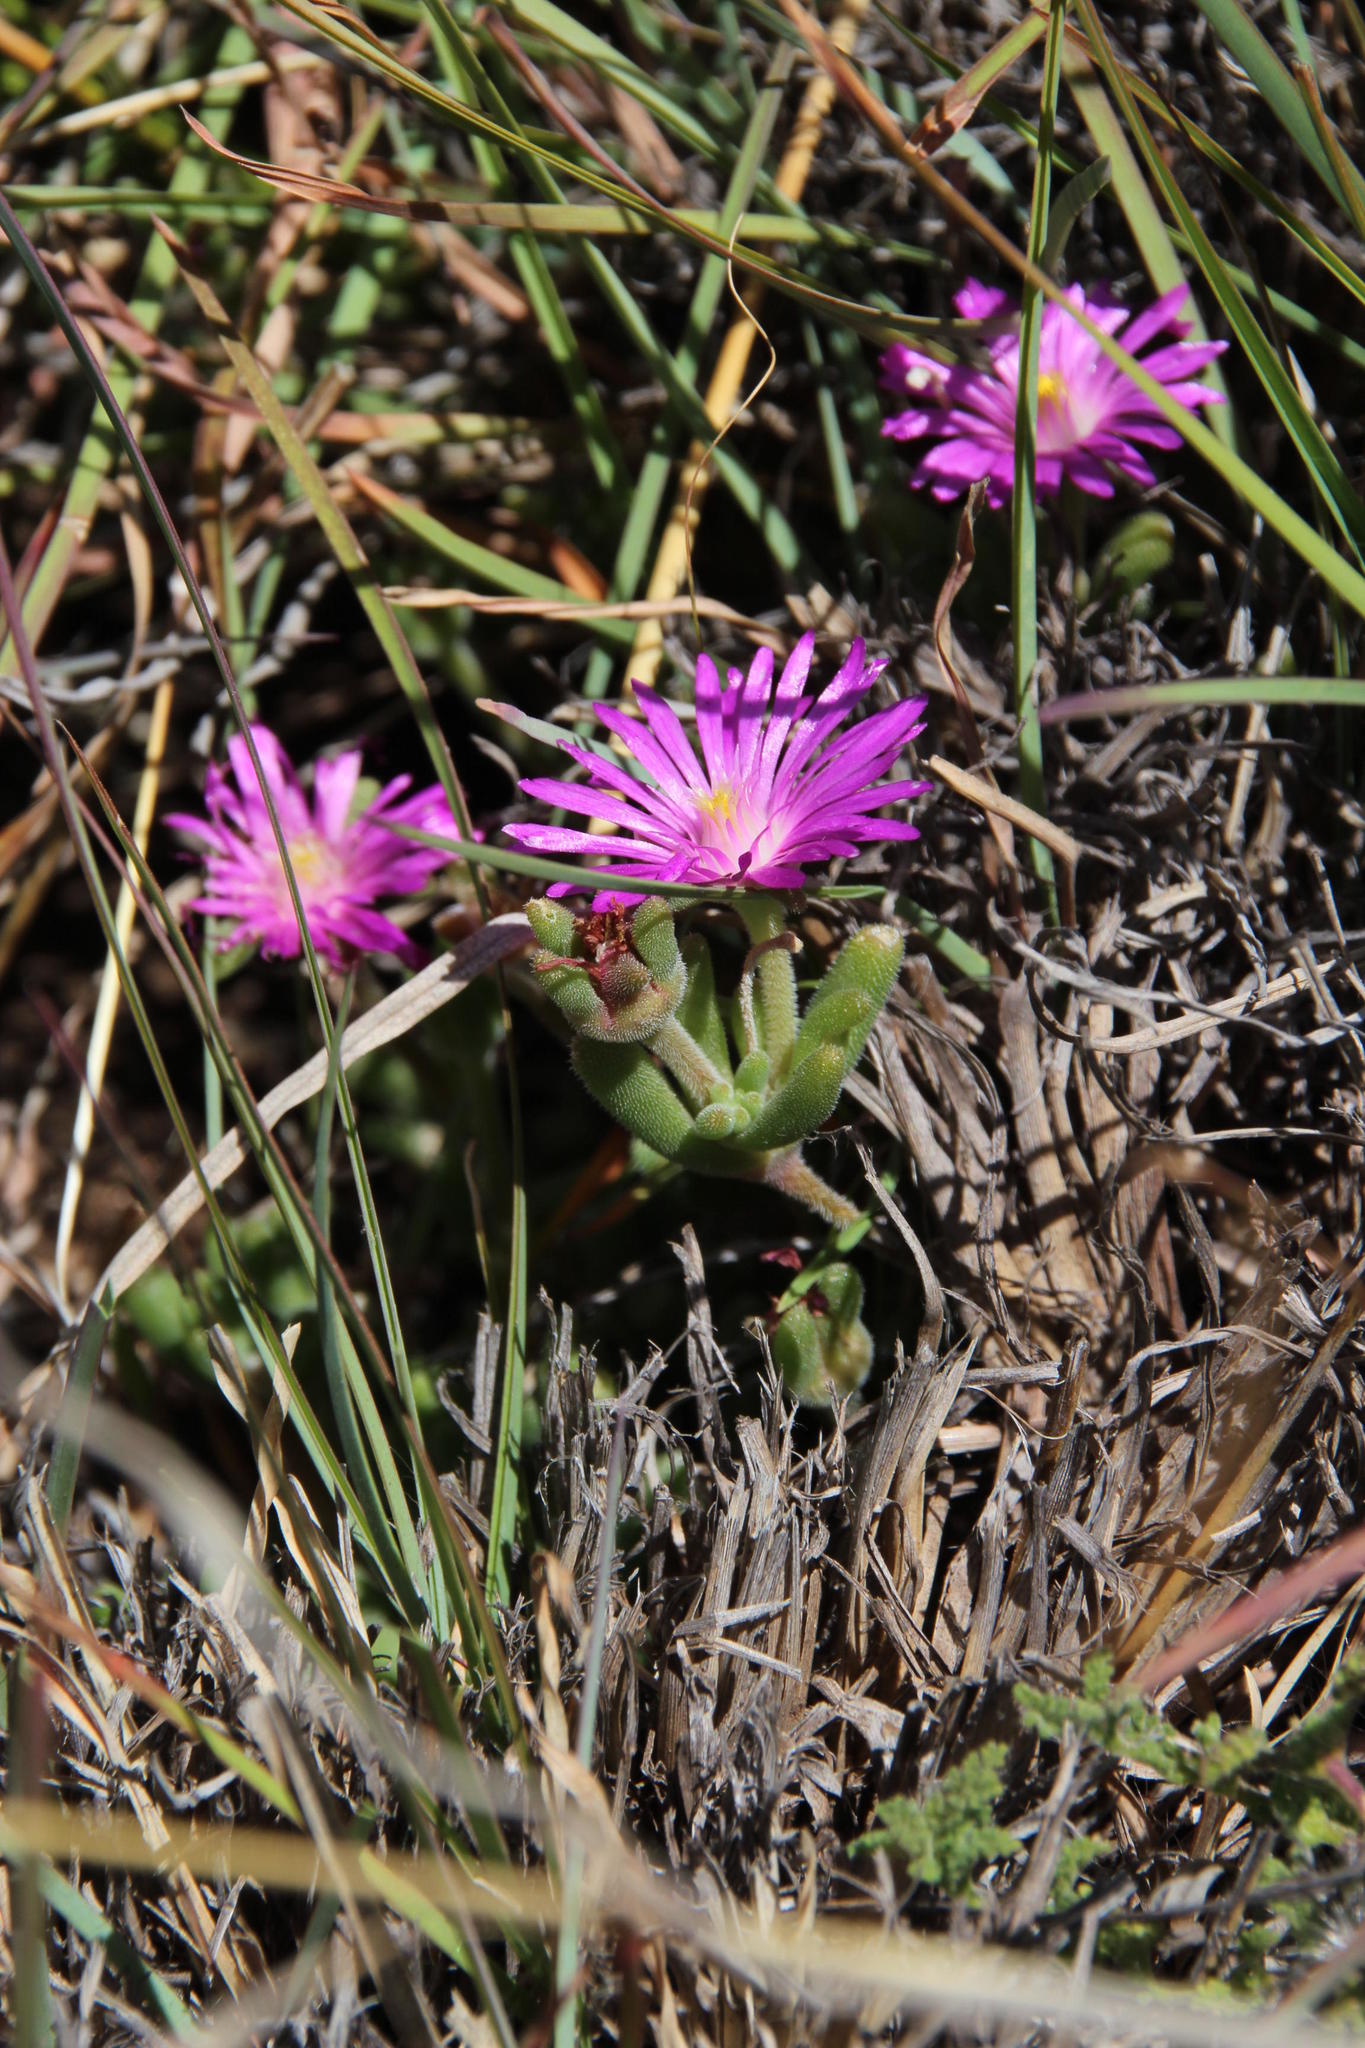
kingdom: Plantae
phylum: Tracheophyta
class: Magnoliopsida
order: Caryophyllales
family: Aizoaceae
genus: Delosperma
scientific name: Delosperma lootsbergense
